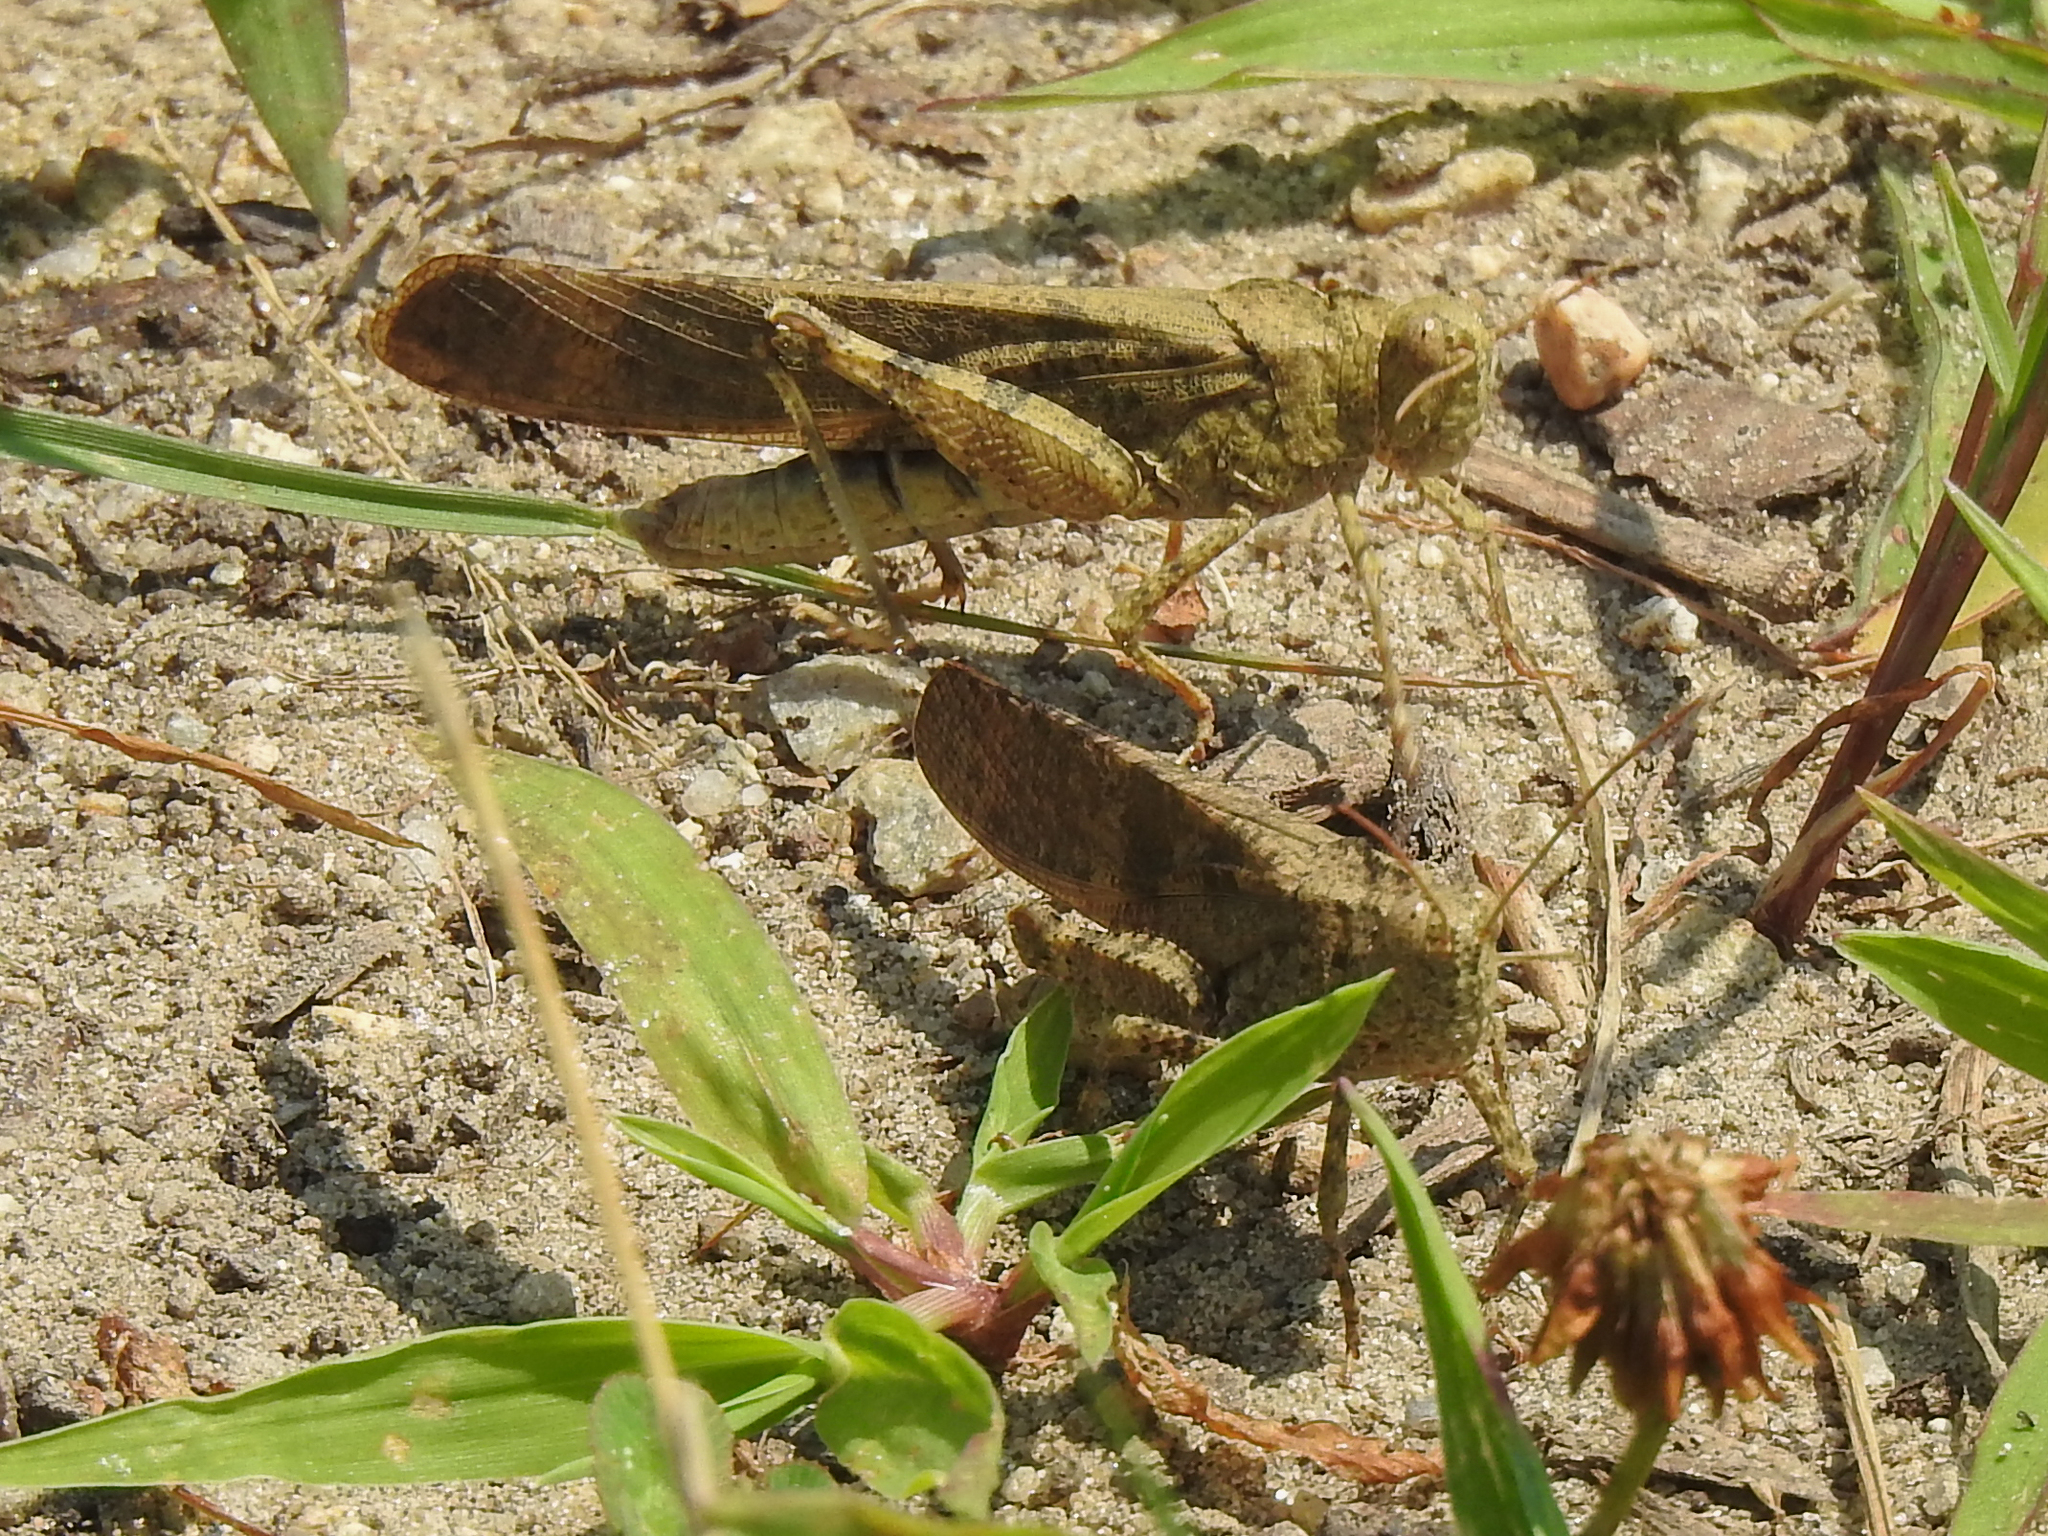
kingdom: Animalia
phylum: Arthropoda
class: Insecta
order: Orthoptera
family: Acrididae
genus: Dissosteira
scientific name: Dissosteira carolina
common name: Carolina grasshopper
